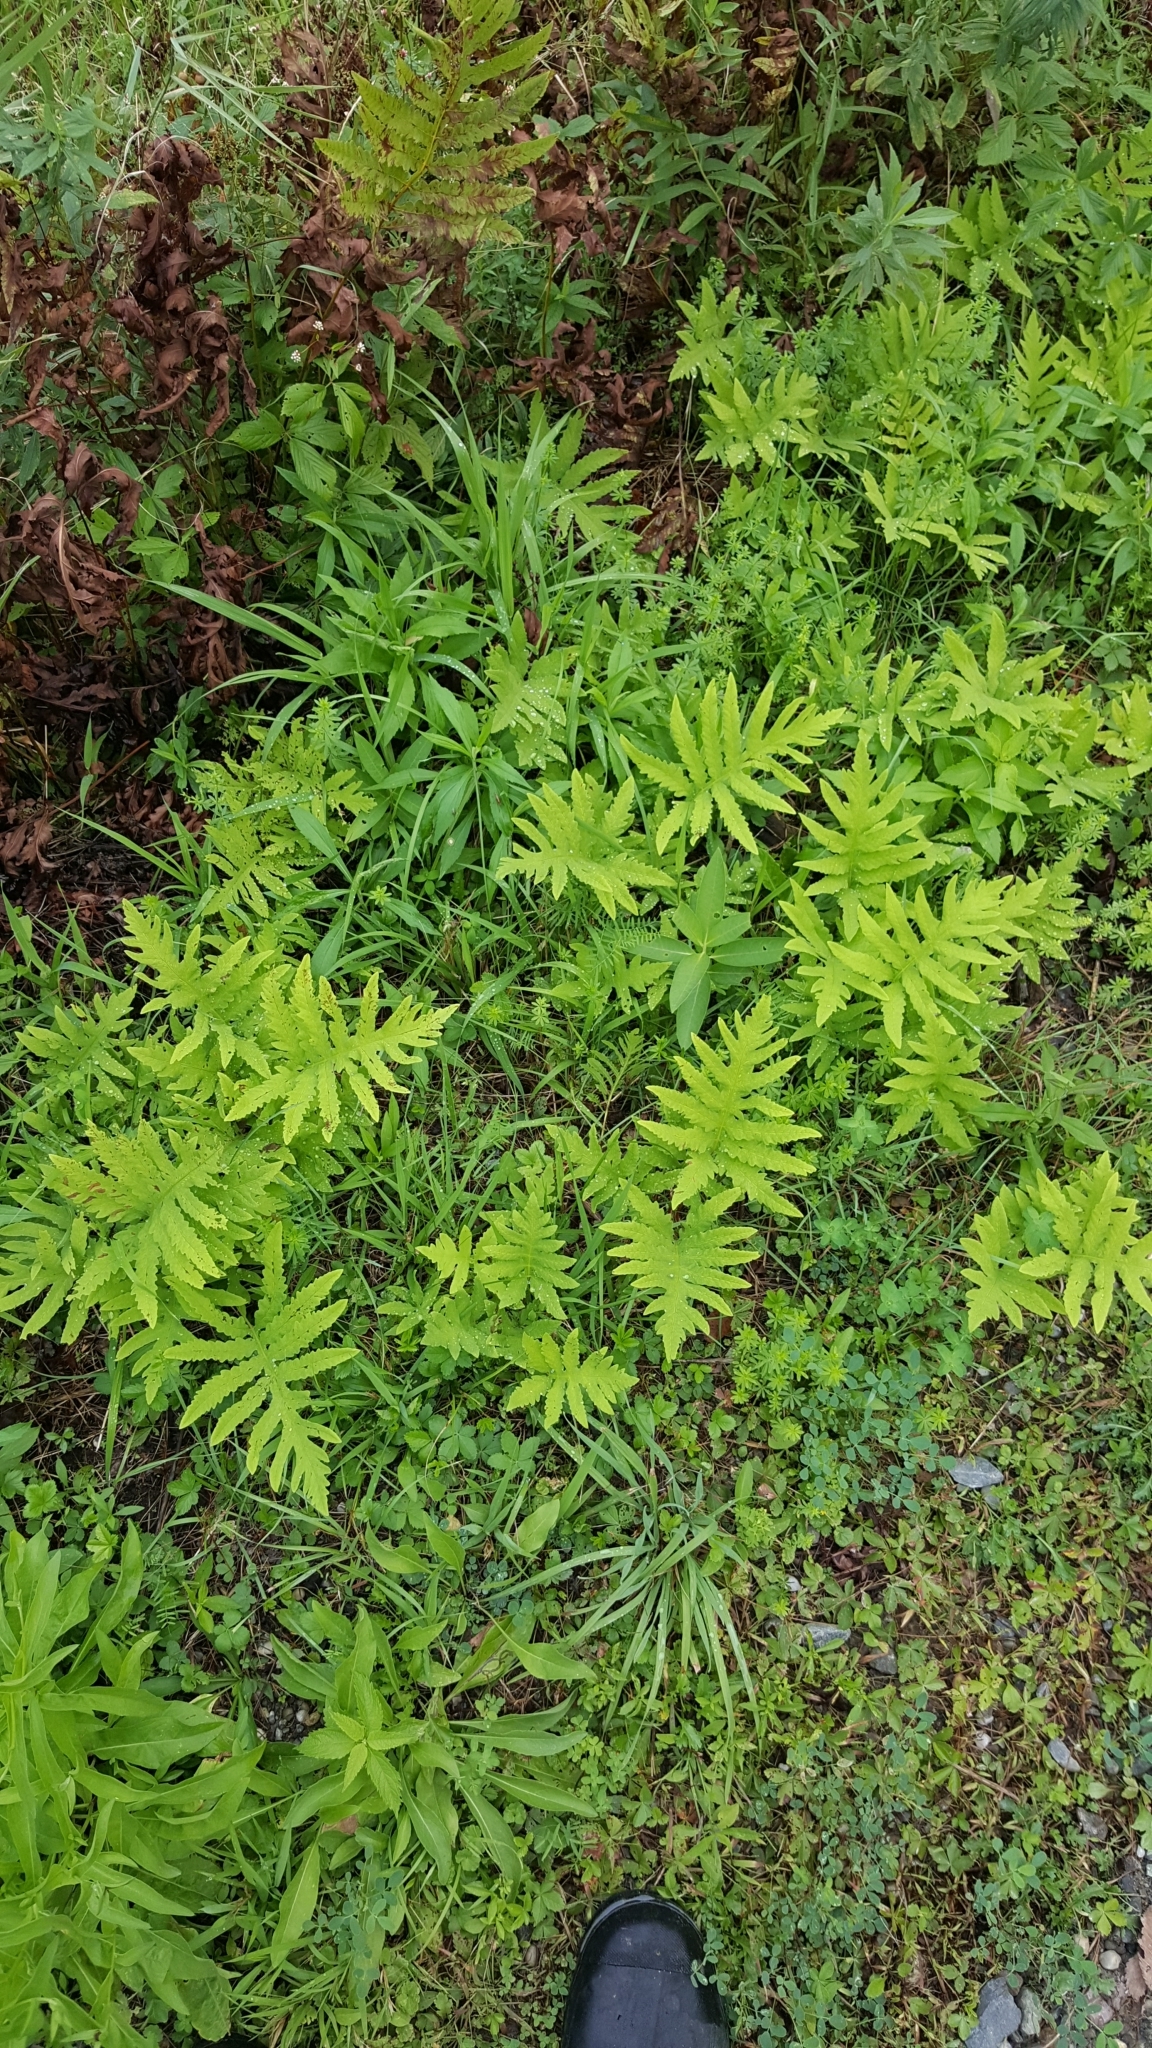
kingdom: Plantae
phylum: Tracheophyta
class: Polypodiopsida
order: Polypodiales
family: Onocleaceae
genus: Onoclea
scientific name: Onoclea sensibilis
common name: Sensitive fern
